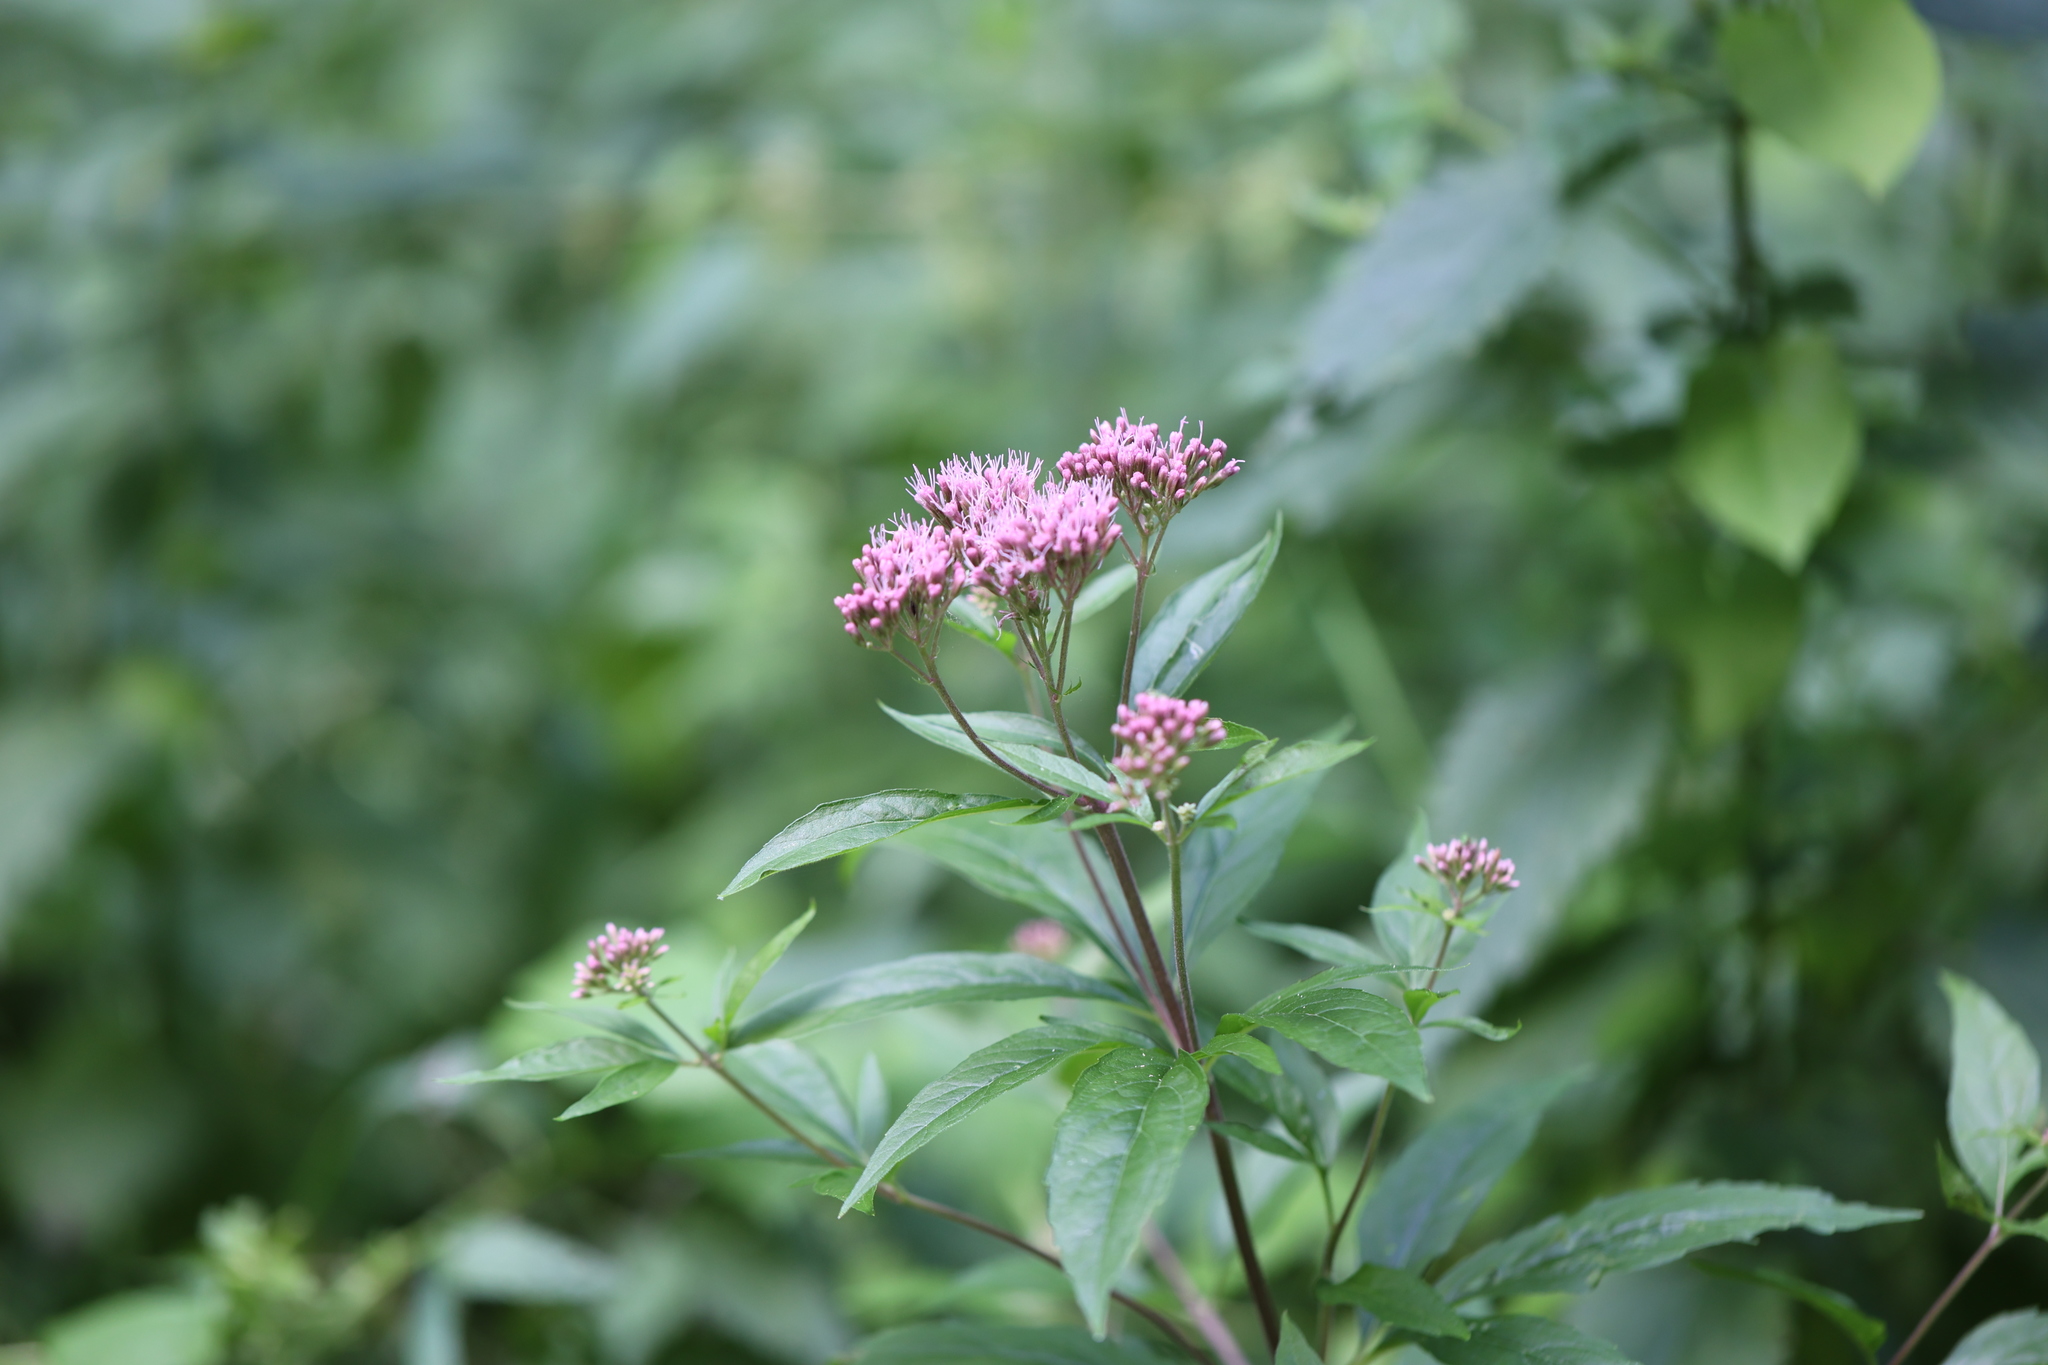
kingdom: Plantae
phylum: Tracheophyta
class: Magnoliopsida
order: Asterales
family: Asteraceae
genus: Eupatorium
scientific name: Eupatorium cannabinum
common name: Hemp-agrimony
